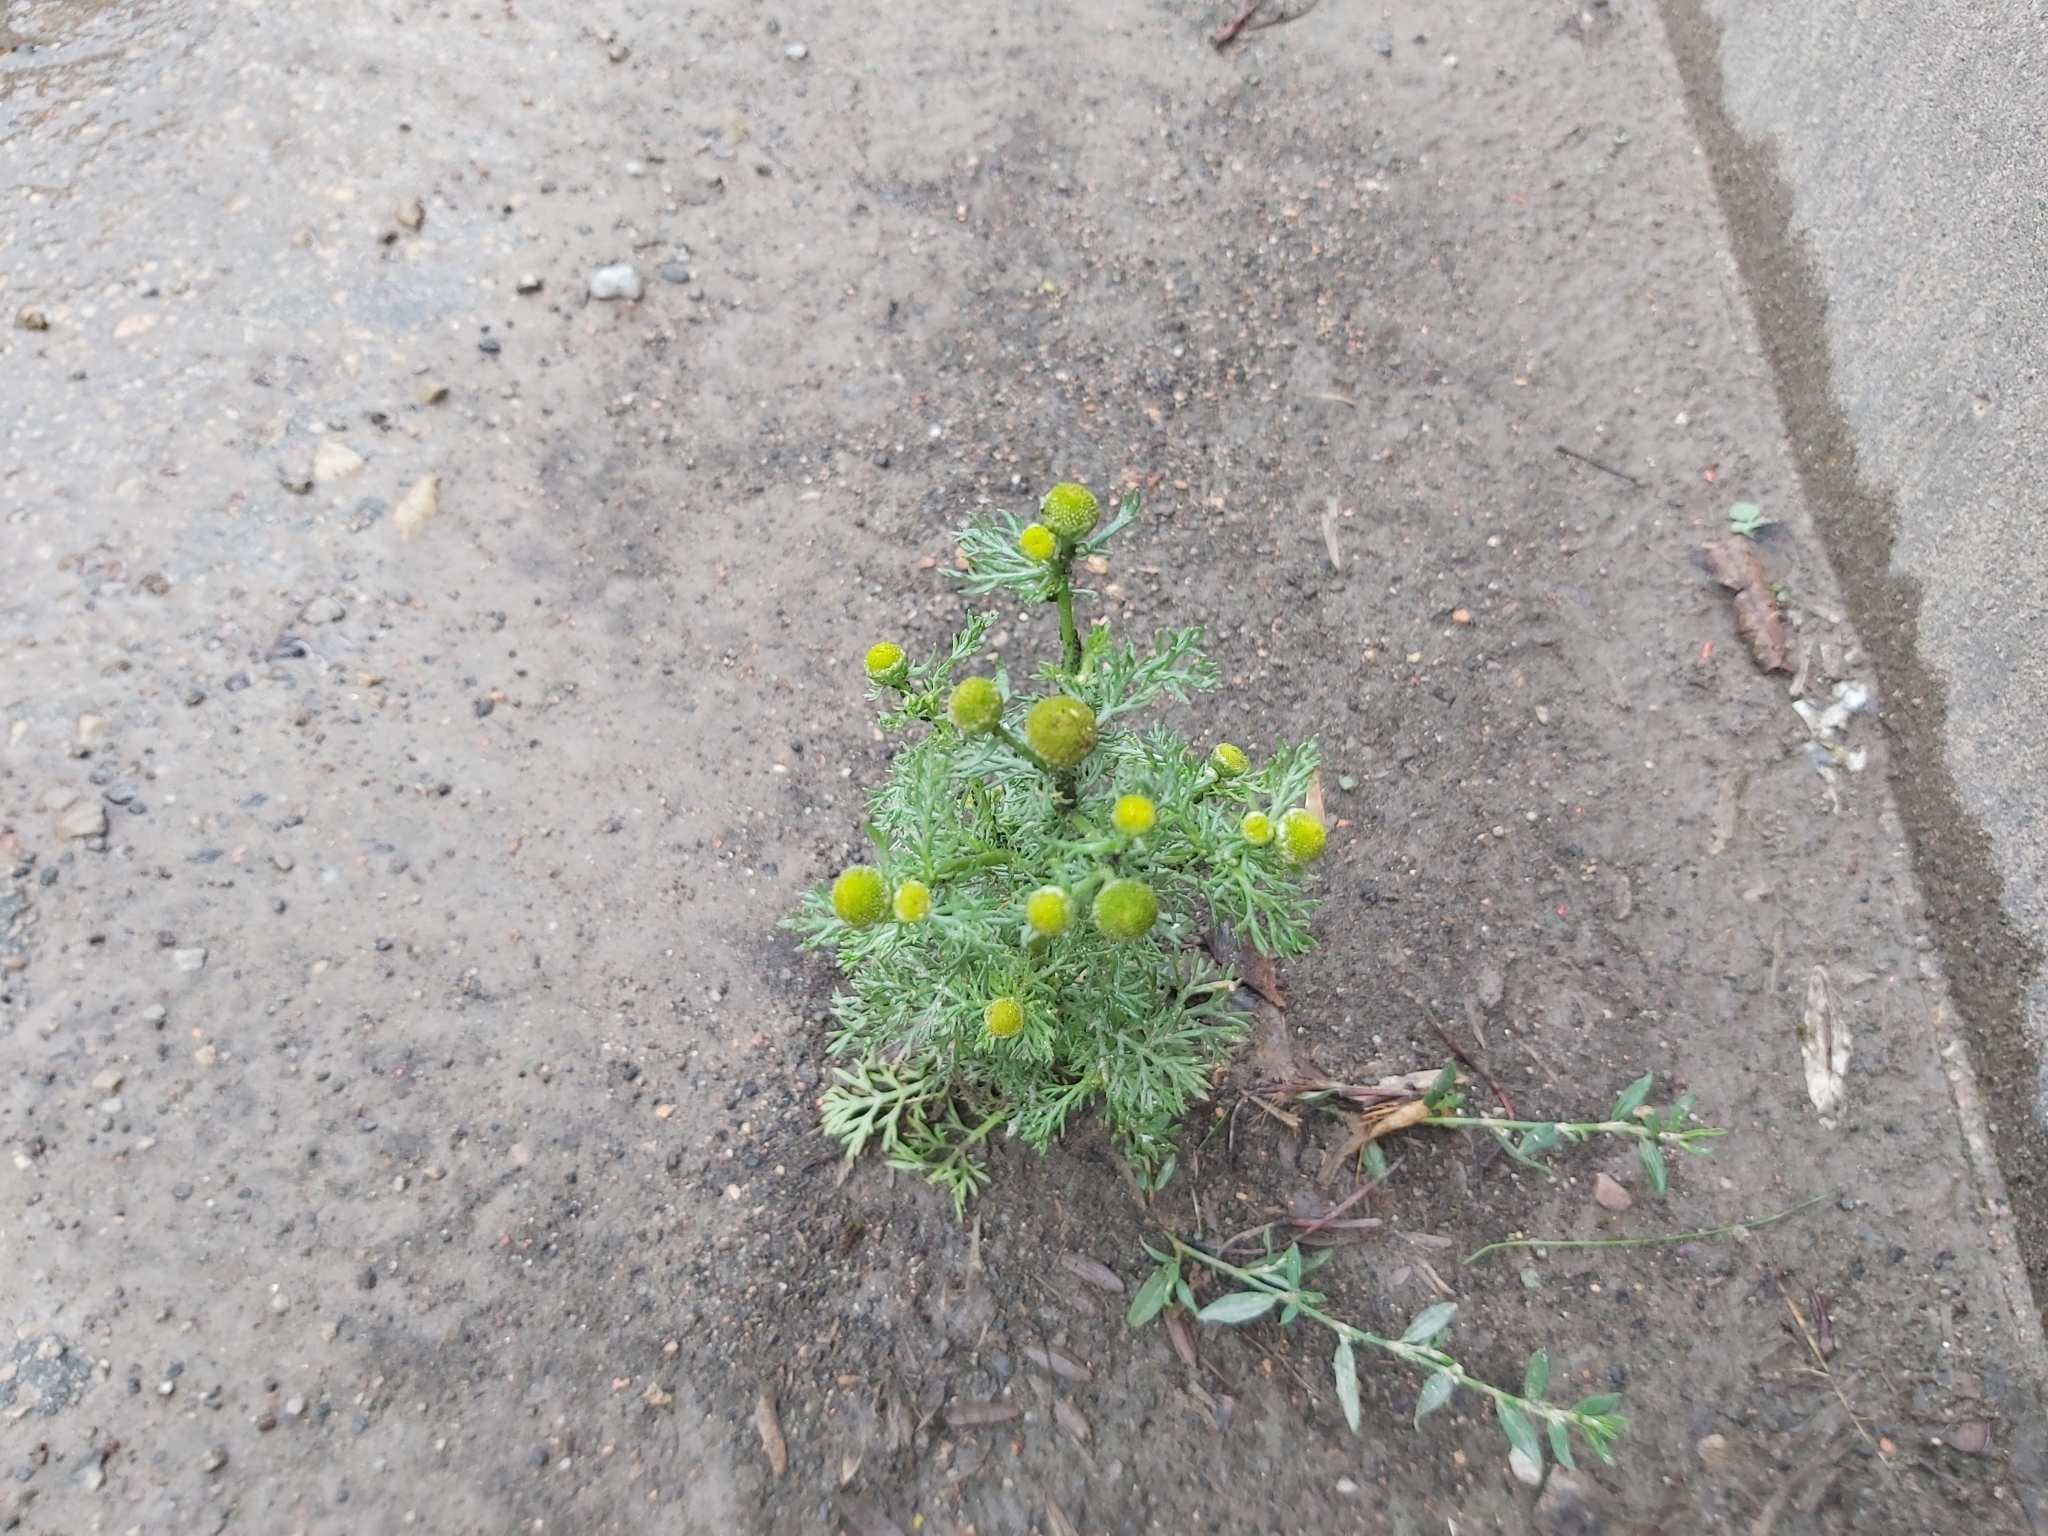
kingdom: Plantae
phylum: Tracheophyta
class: Magnoliopsida
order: Asterales
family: Asteraceae
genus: Matricaria
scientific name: Matricaria discoidea
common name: Disc mayweed
